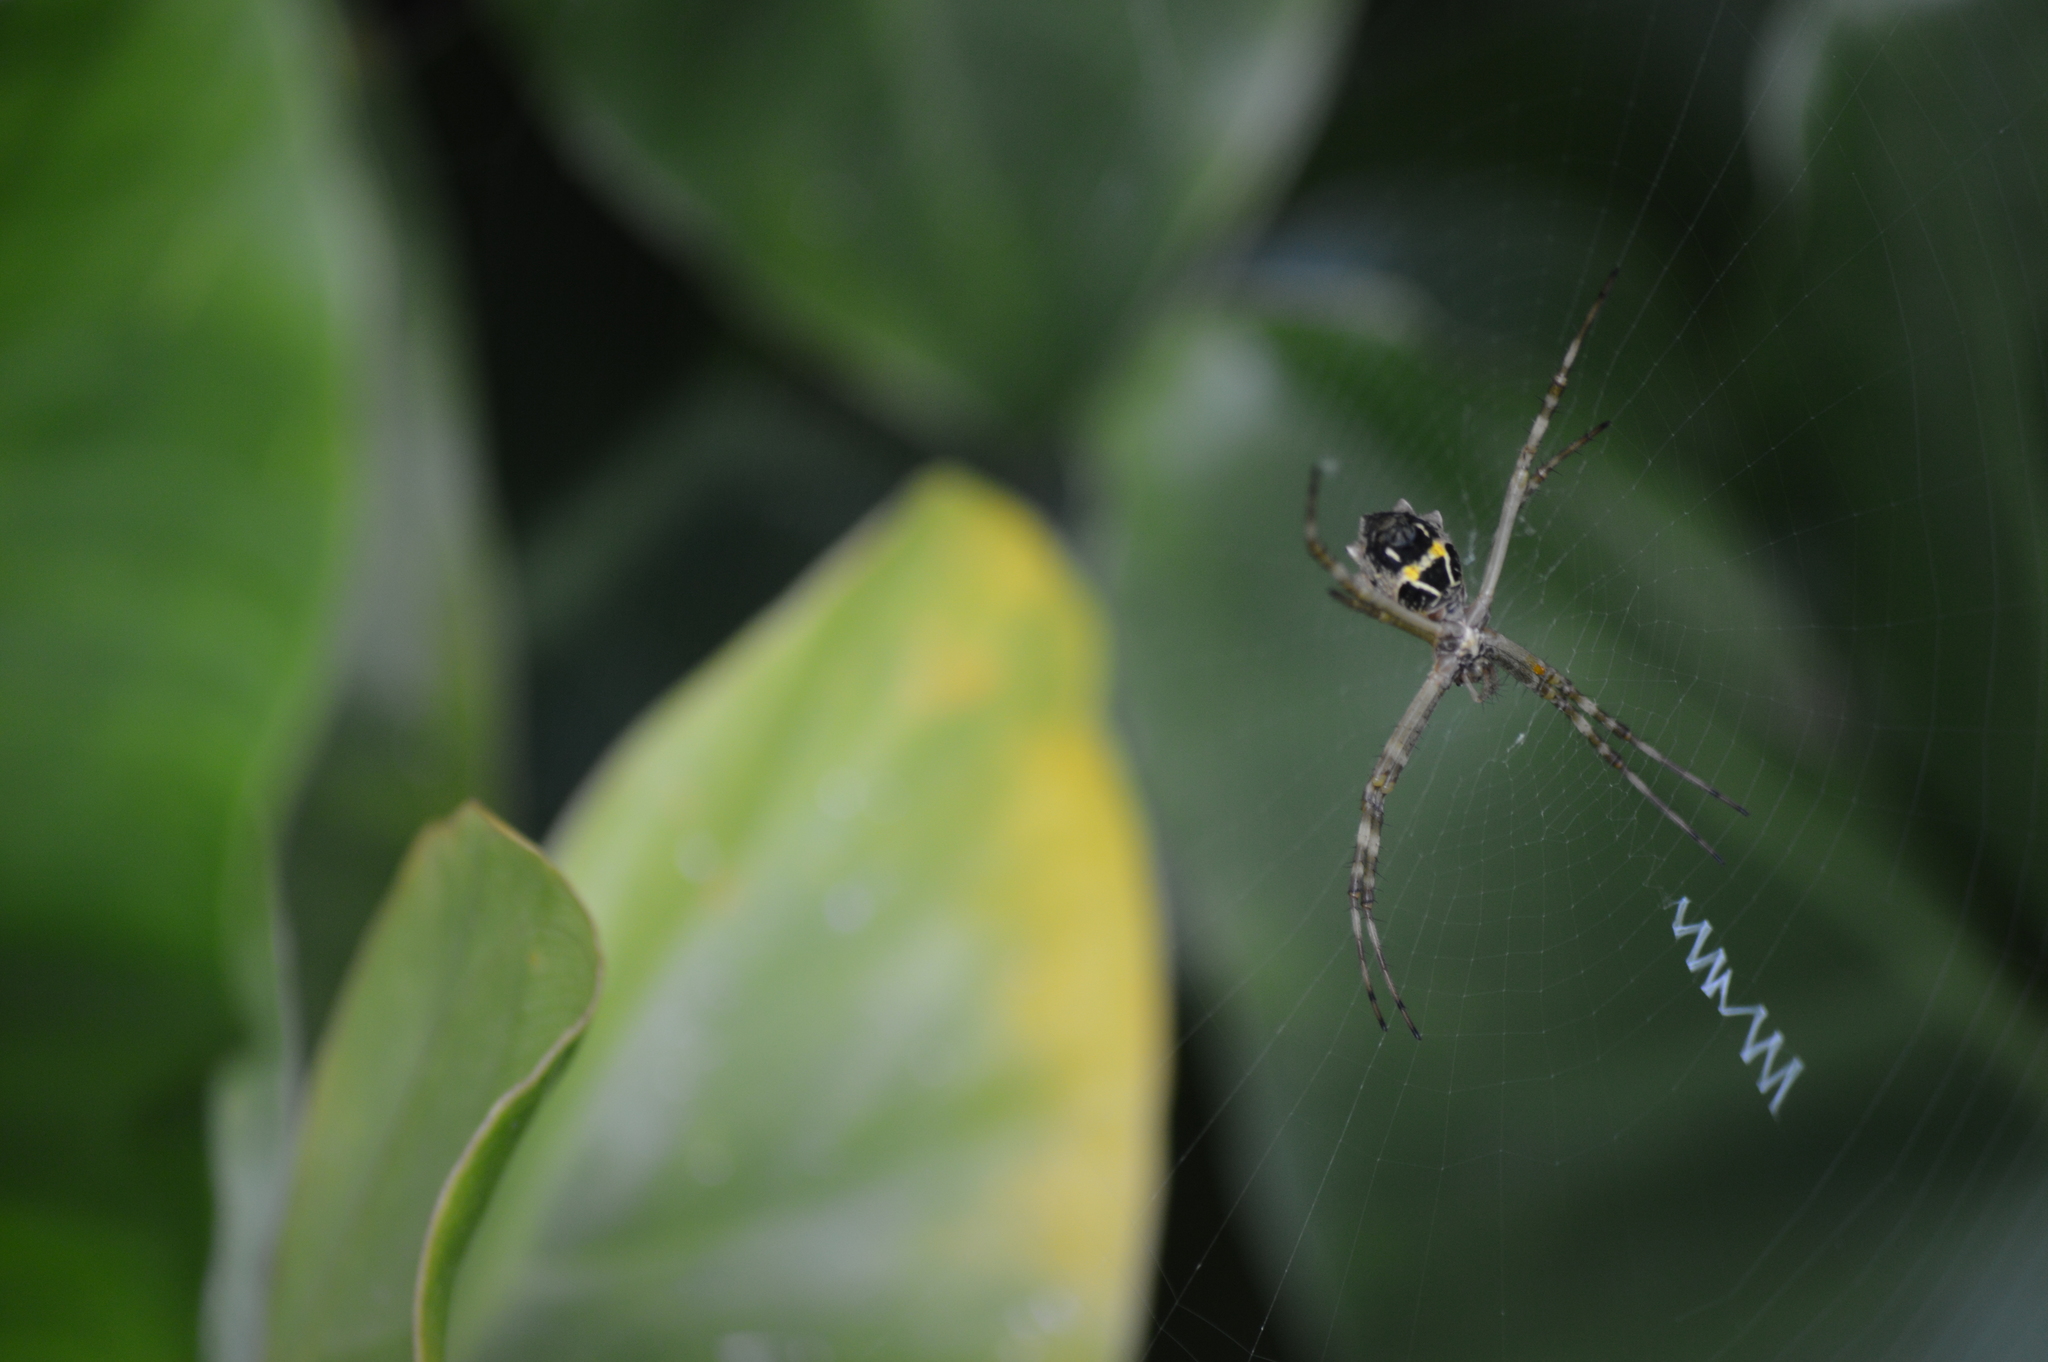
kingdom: Animalia
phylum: Arthropoda
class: Arachnida
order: Araneae
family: Araneidae
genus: Argiope
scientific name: Argiope argentata
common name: Orb weavers
